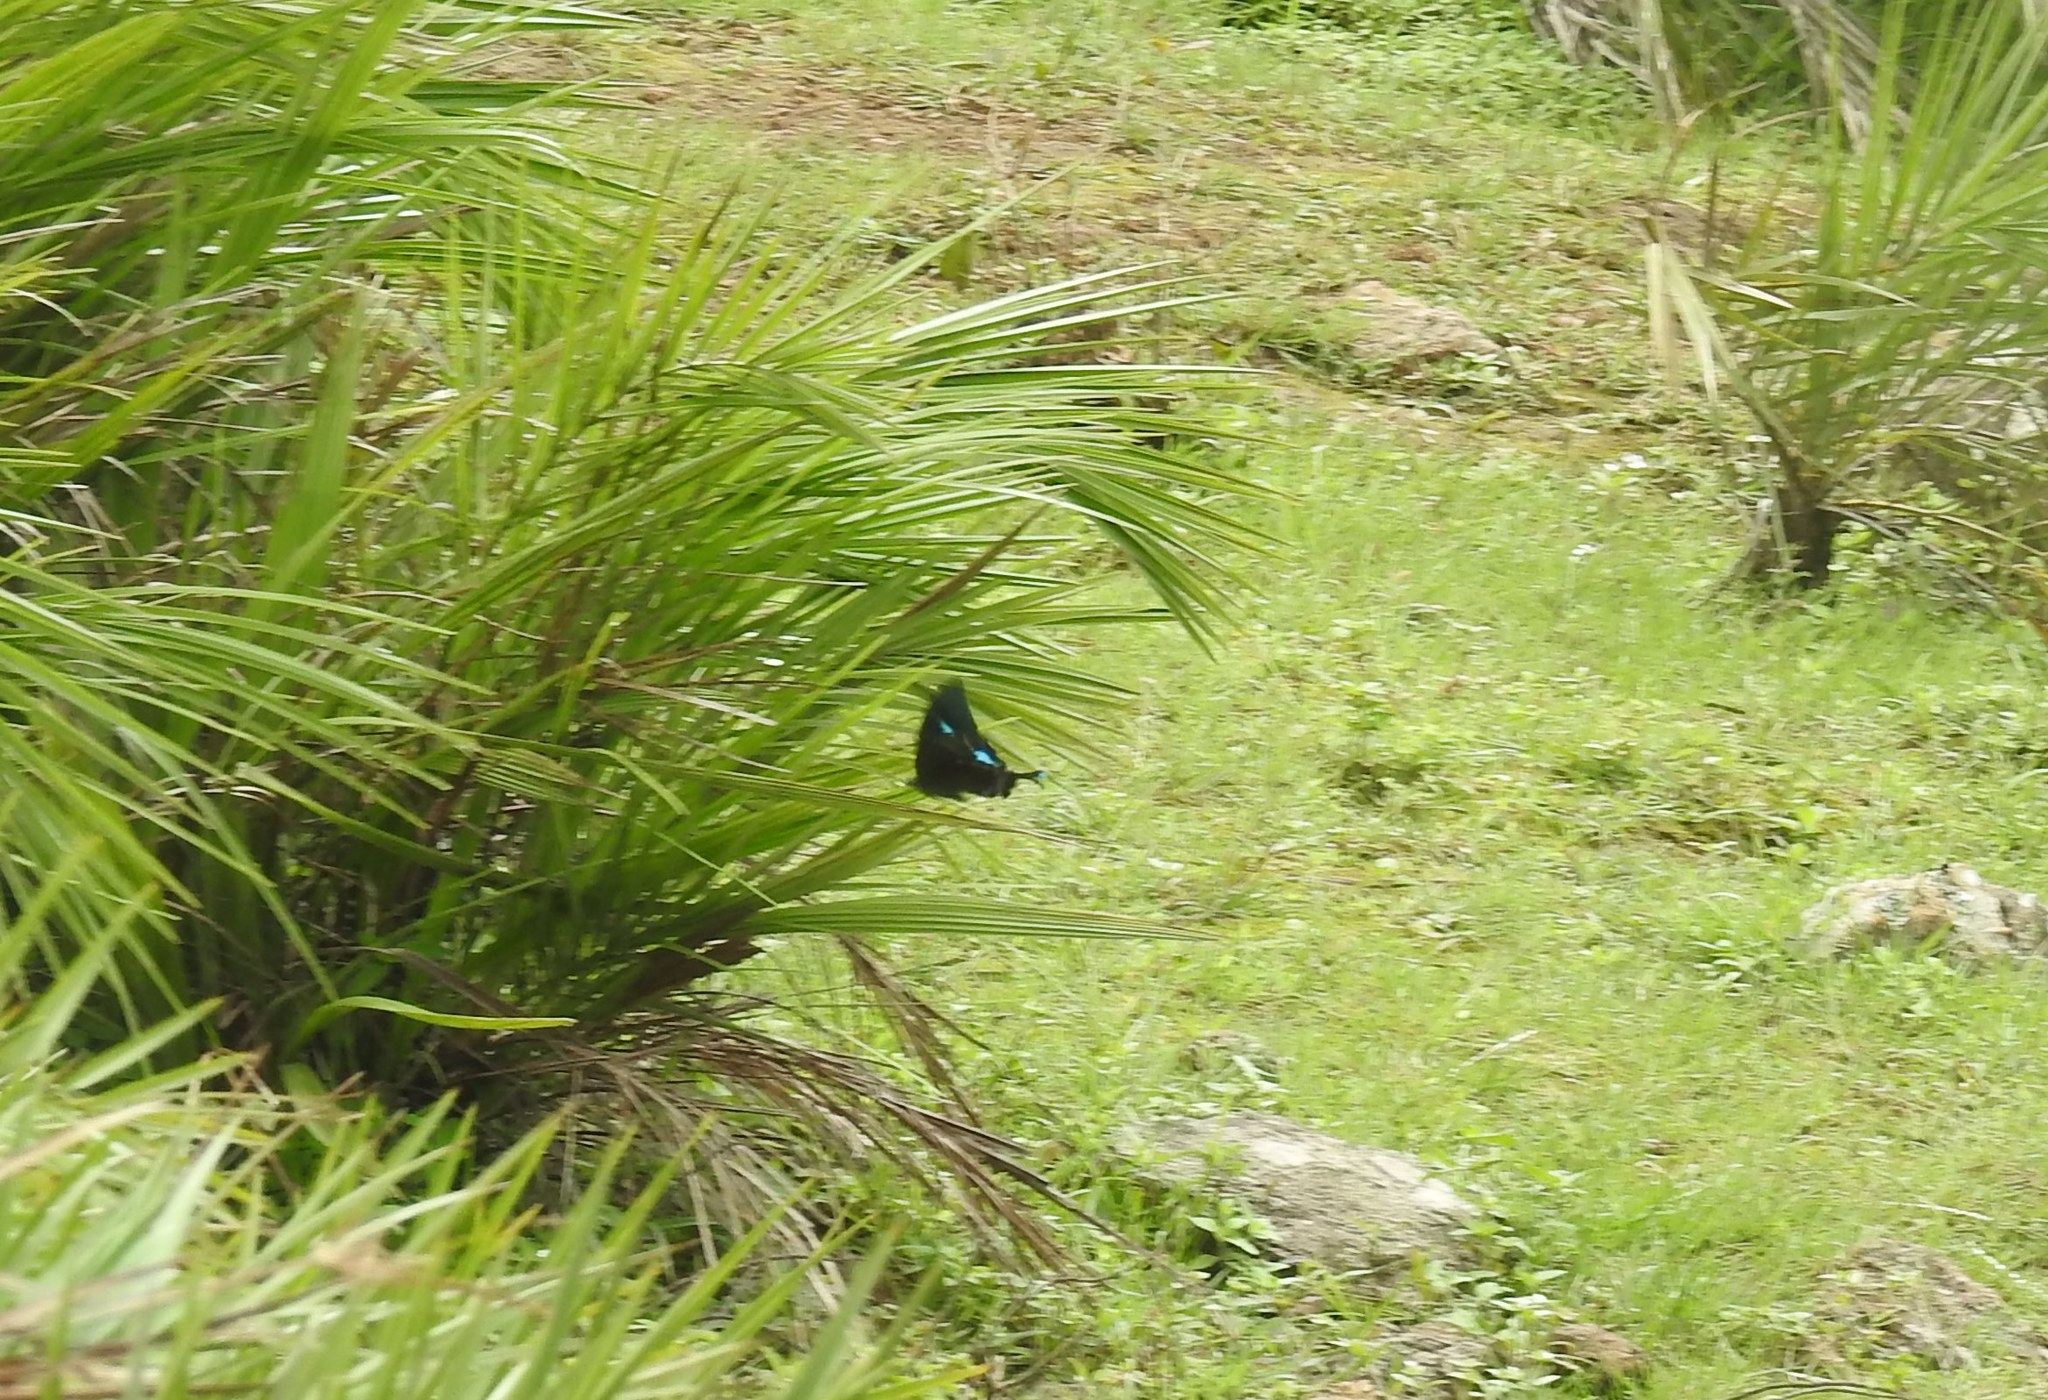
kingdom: Animalia
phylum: Arthropoda
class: Insecta
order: Lepidoptera
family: Papilionidae
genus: Papilio
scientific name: Papilio crino
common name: Common banded peacock
